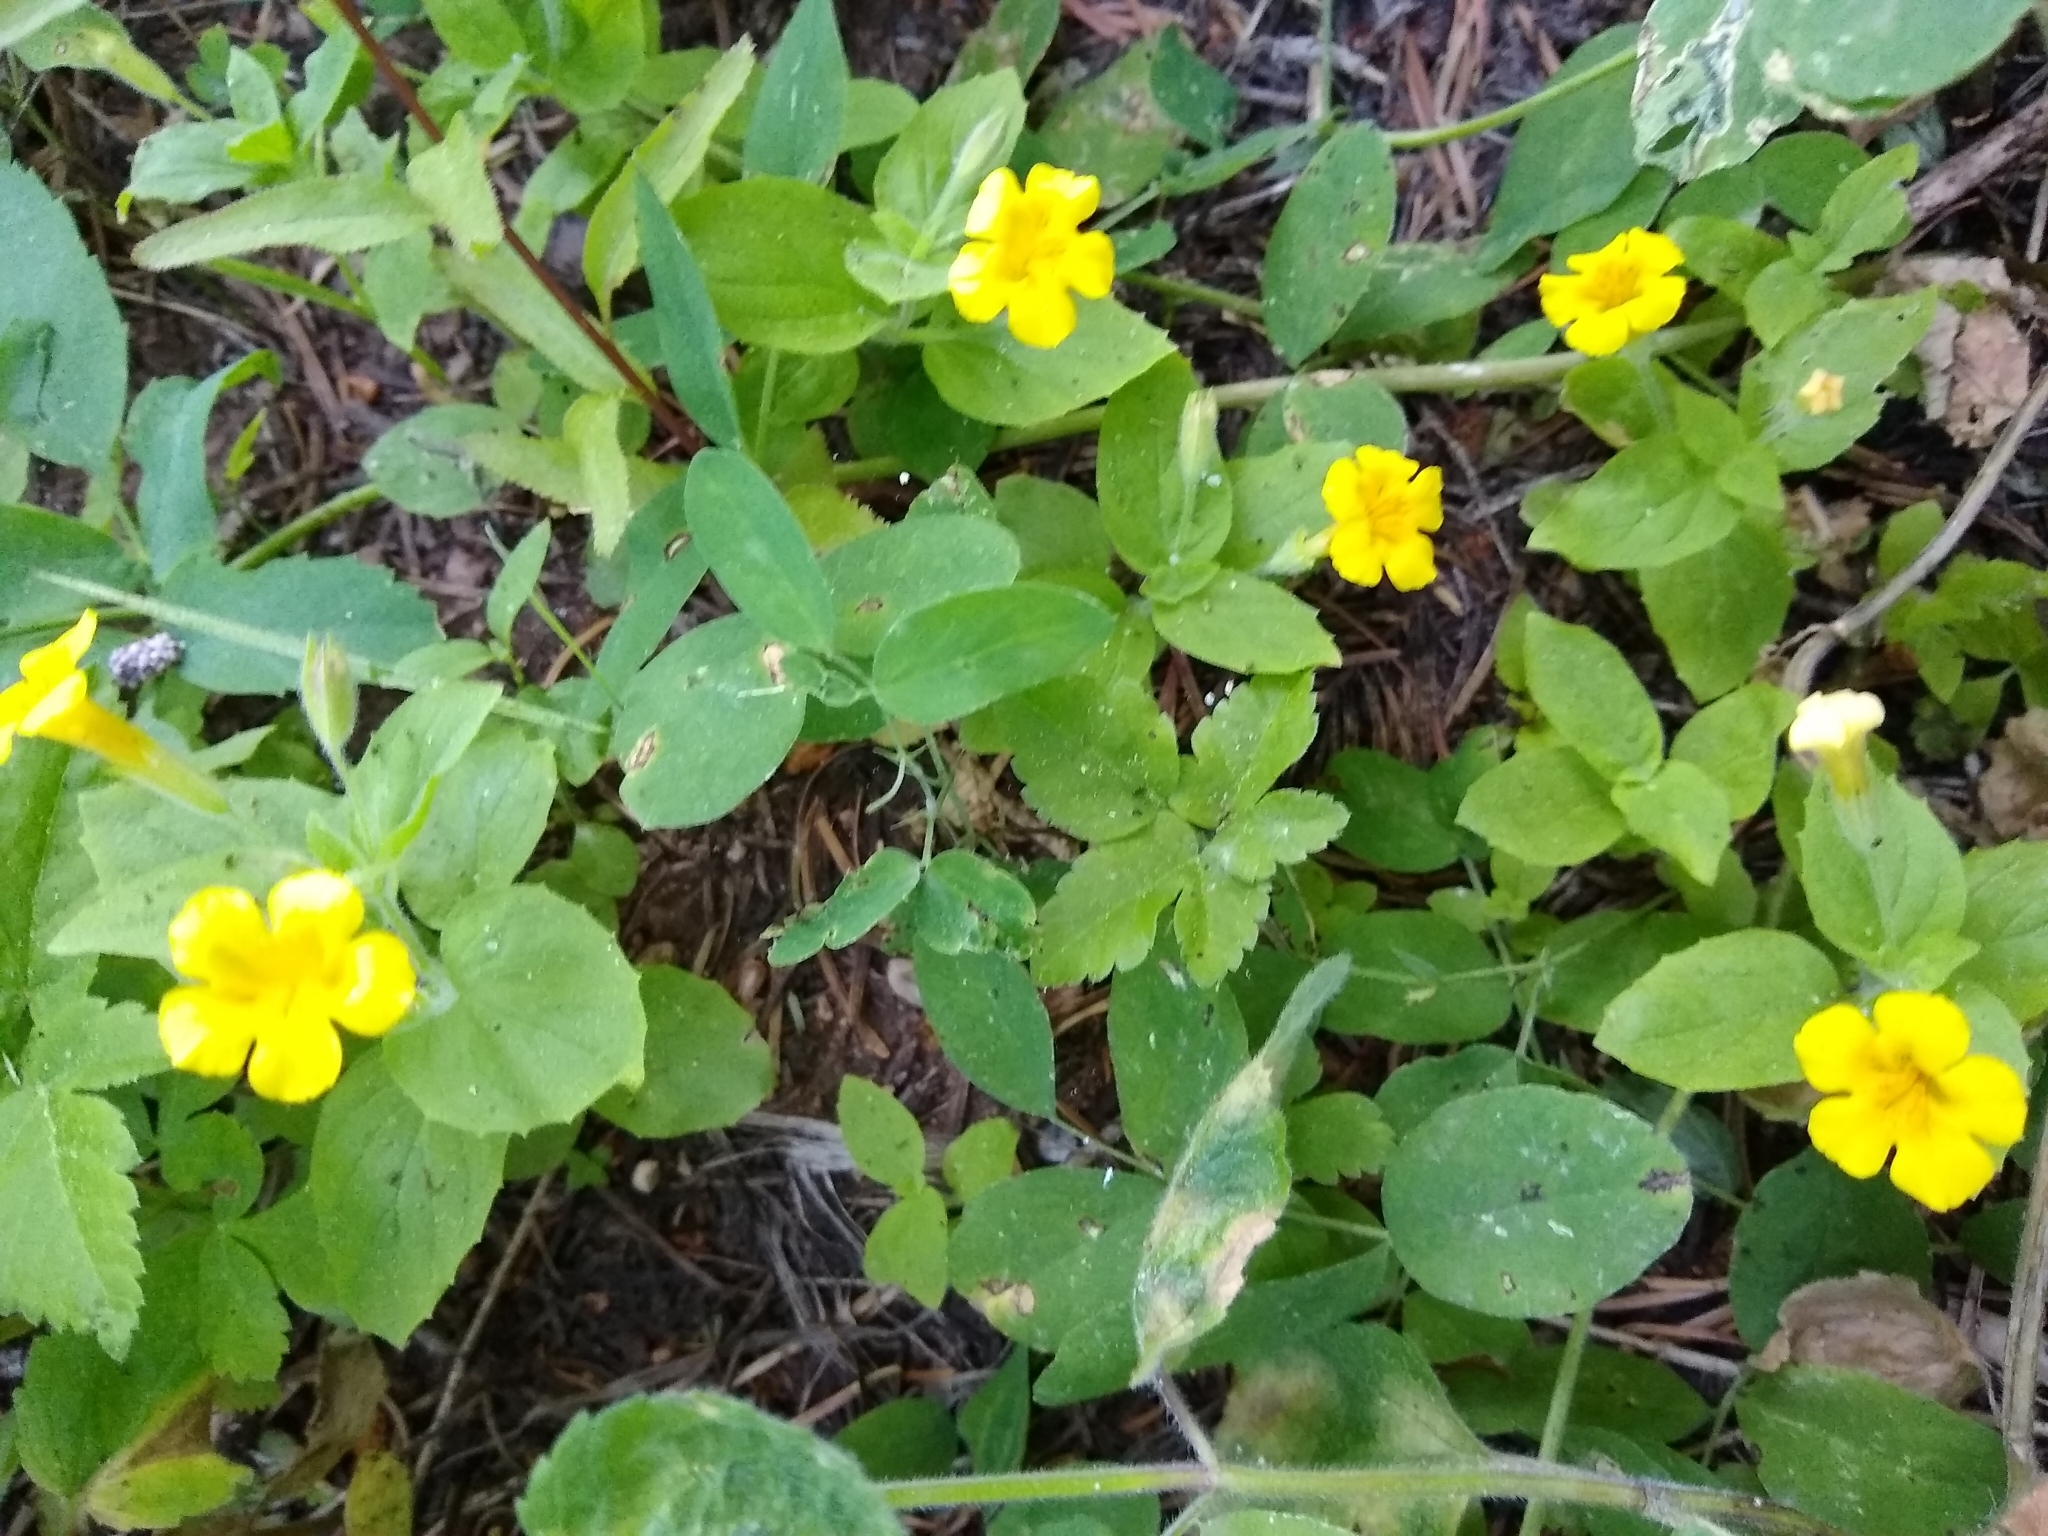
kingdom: Plantae
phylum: Tracheophyta
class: Magnoliopsida
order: Lamiales
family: Phrymaceae
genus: Erythranthe
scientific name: Erythranthe moschata
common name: Muskflower
